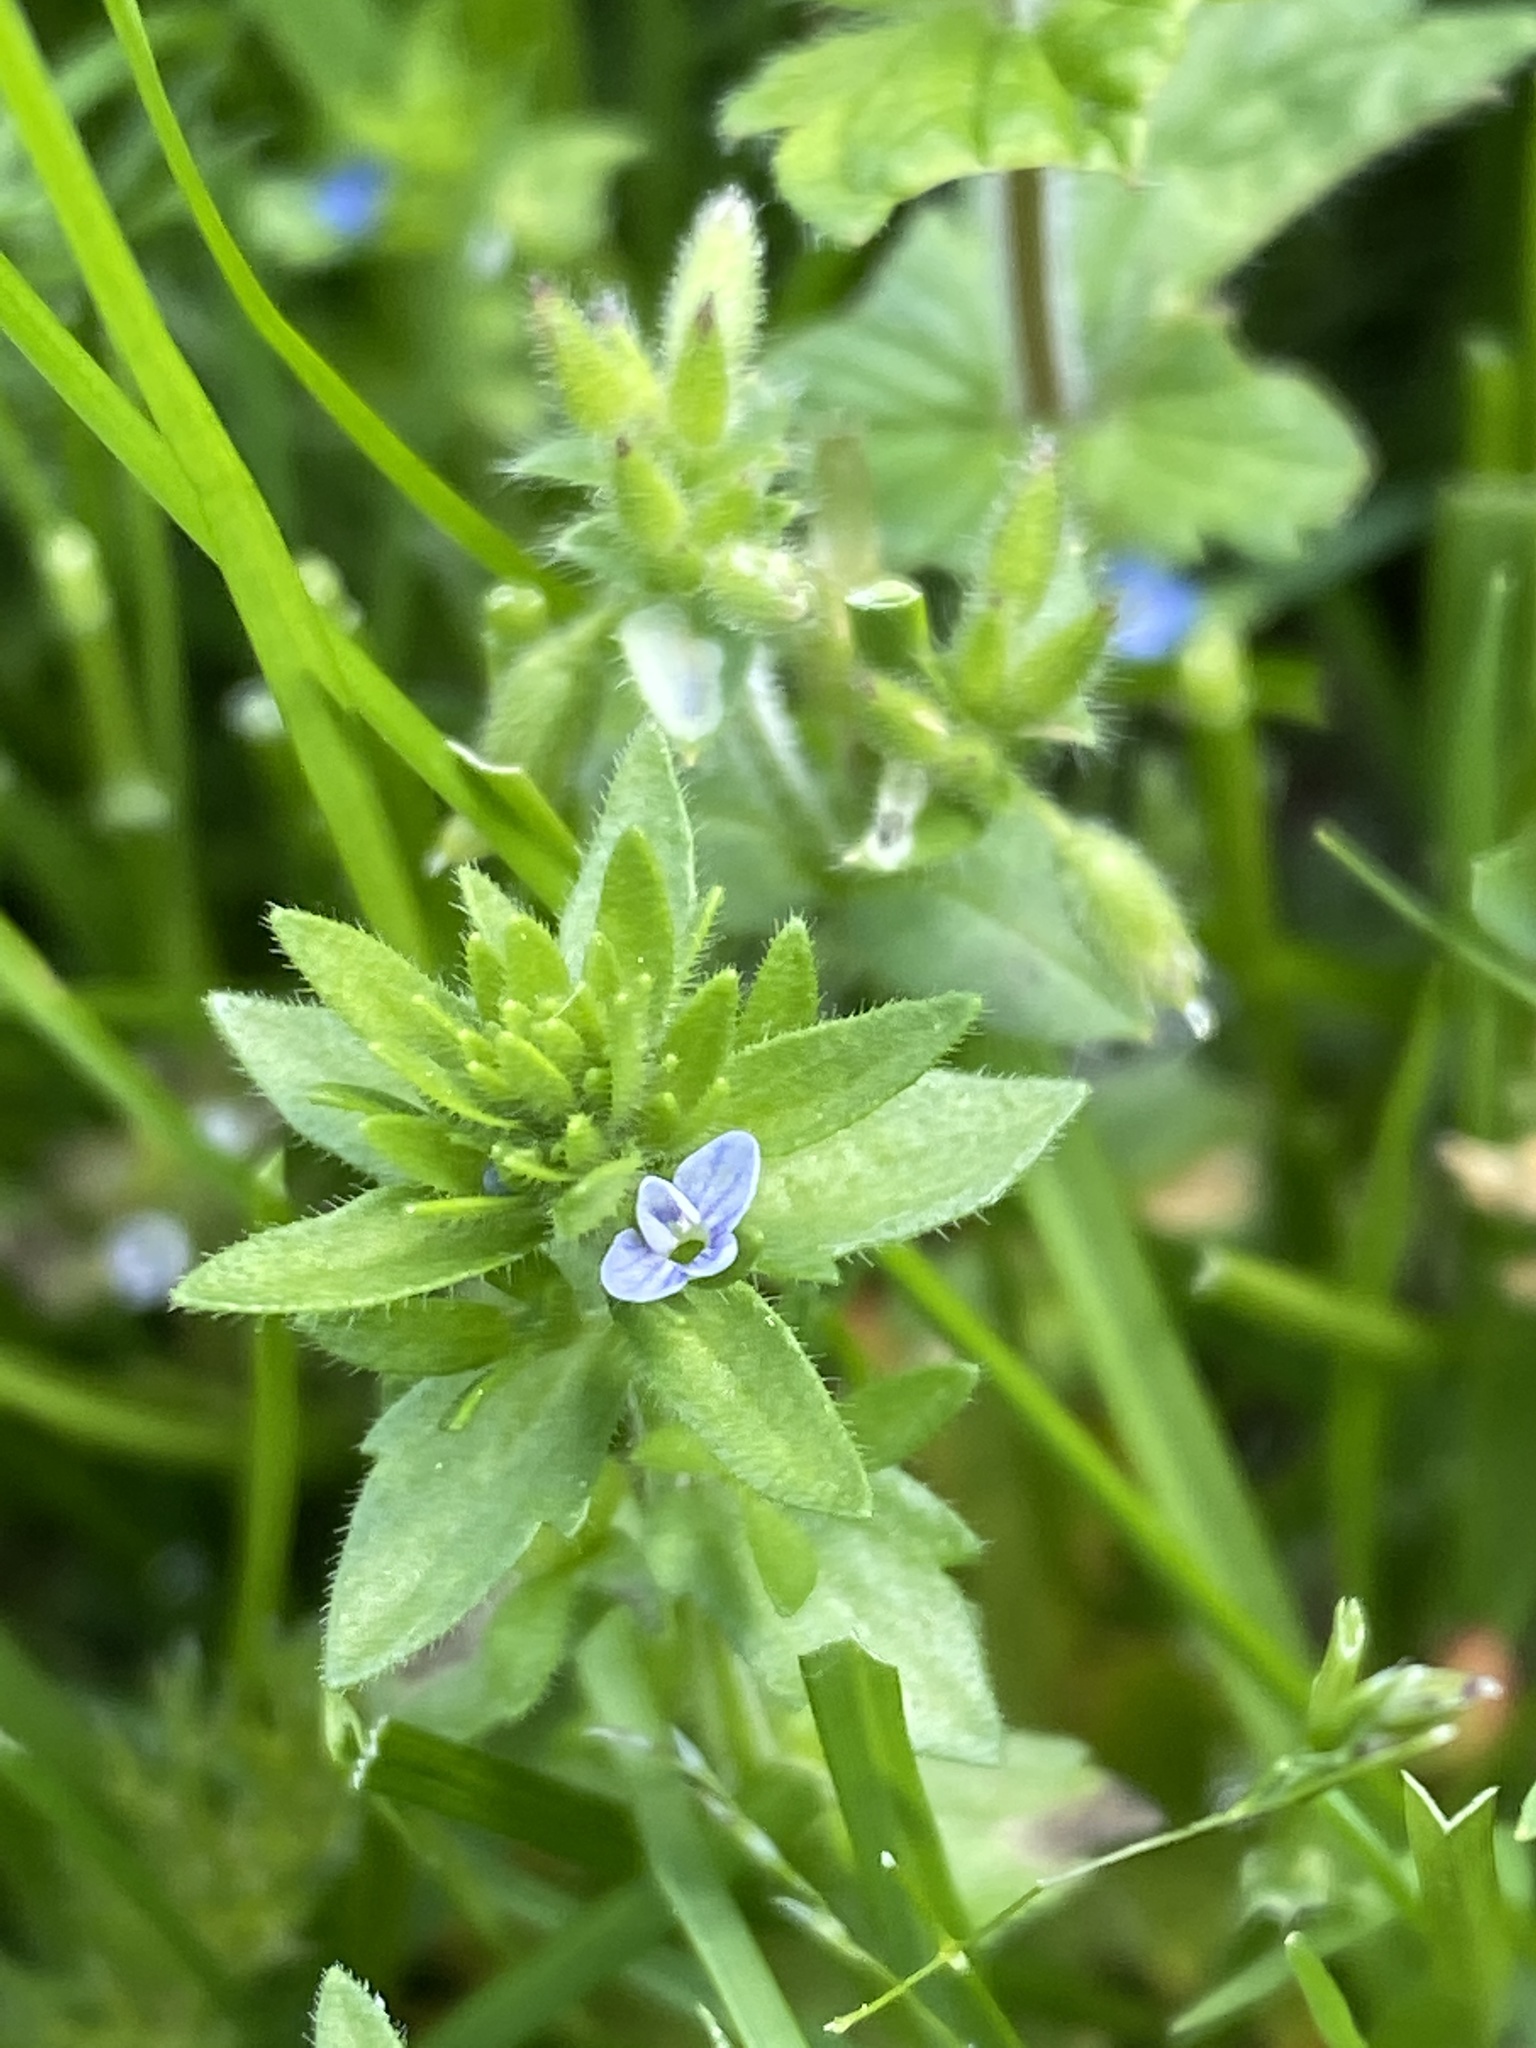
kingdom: Plantae
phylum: Tracheophyta
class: Magnoliopsida
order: Lamiales
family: Plantaginaceae
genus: Veronica
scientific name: Veronica arvensis
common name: Corn speedwell
